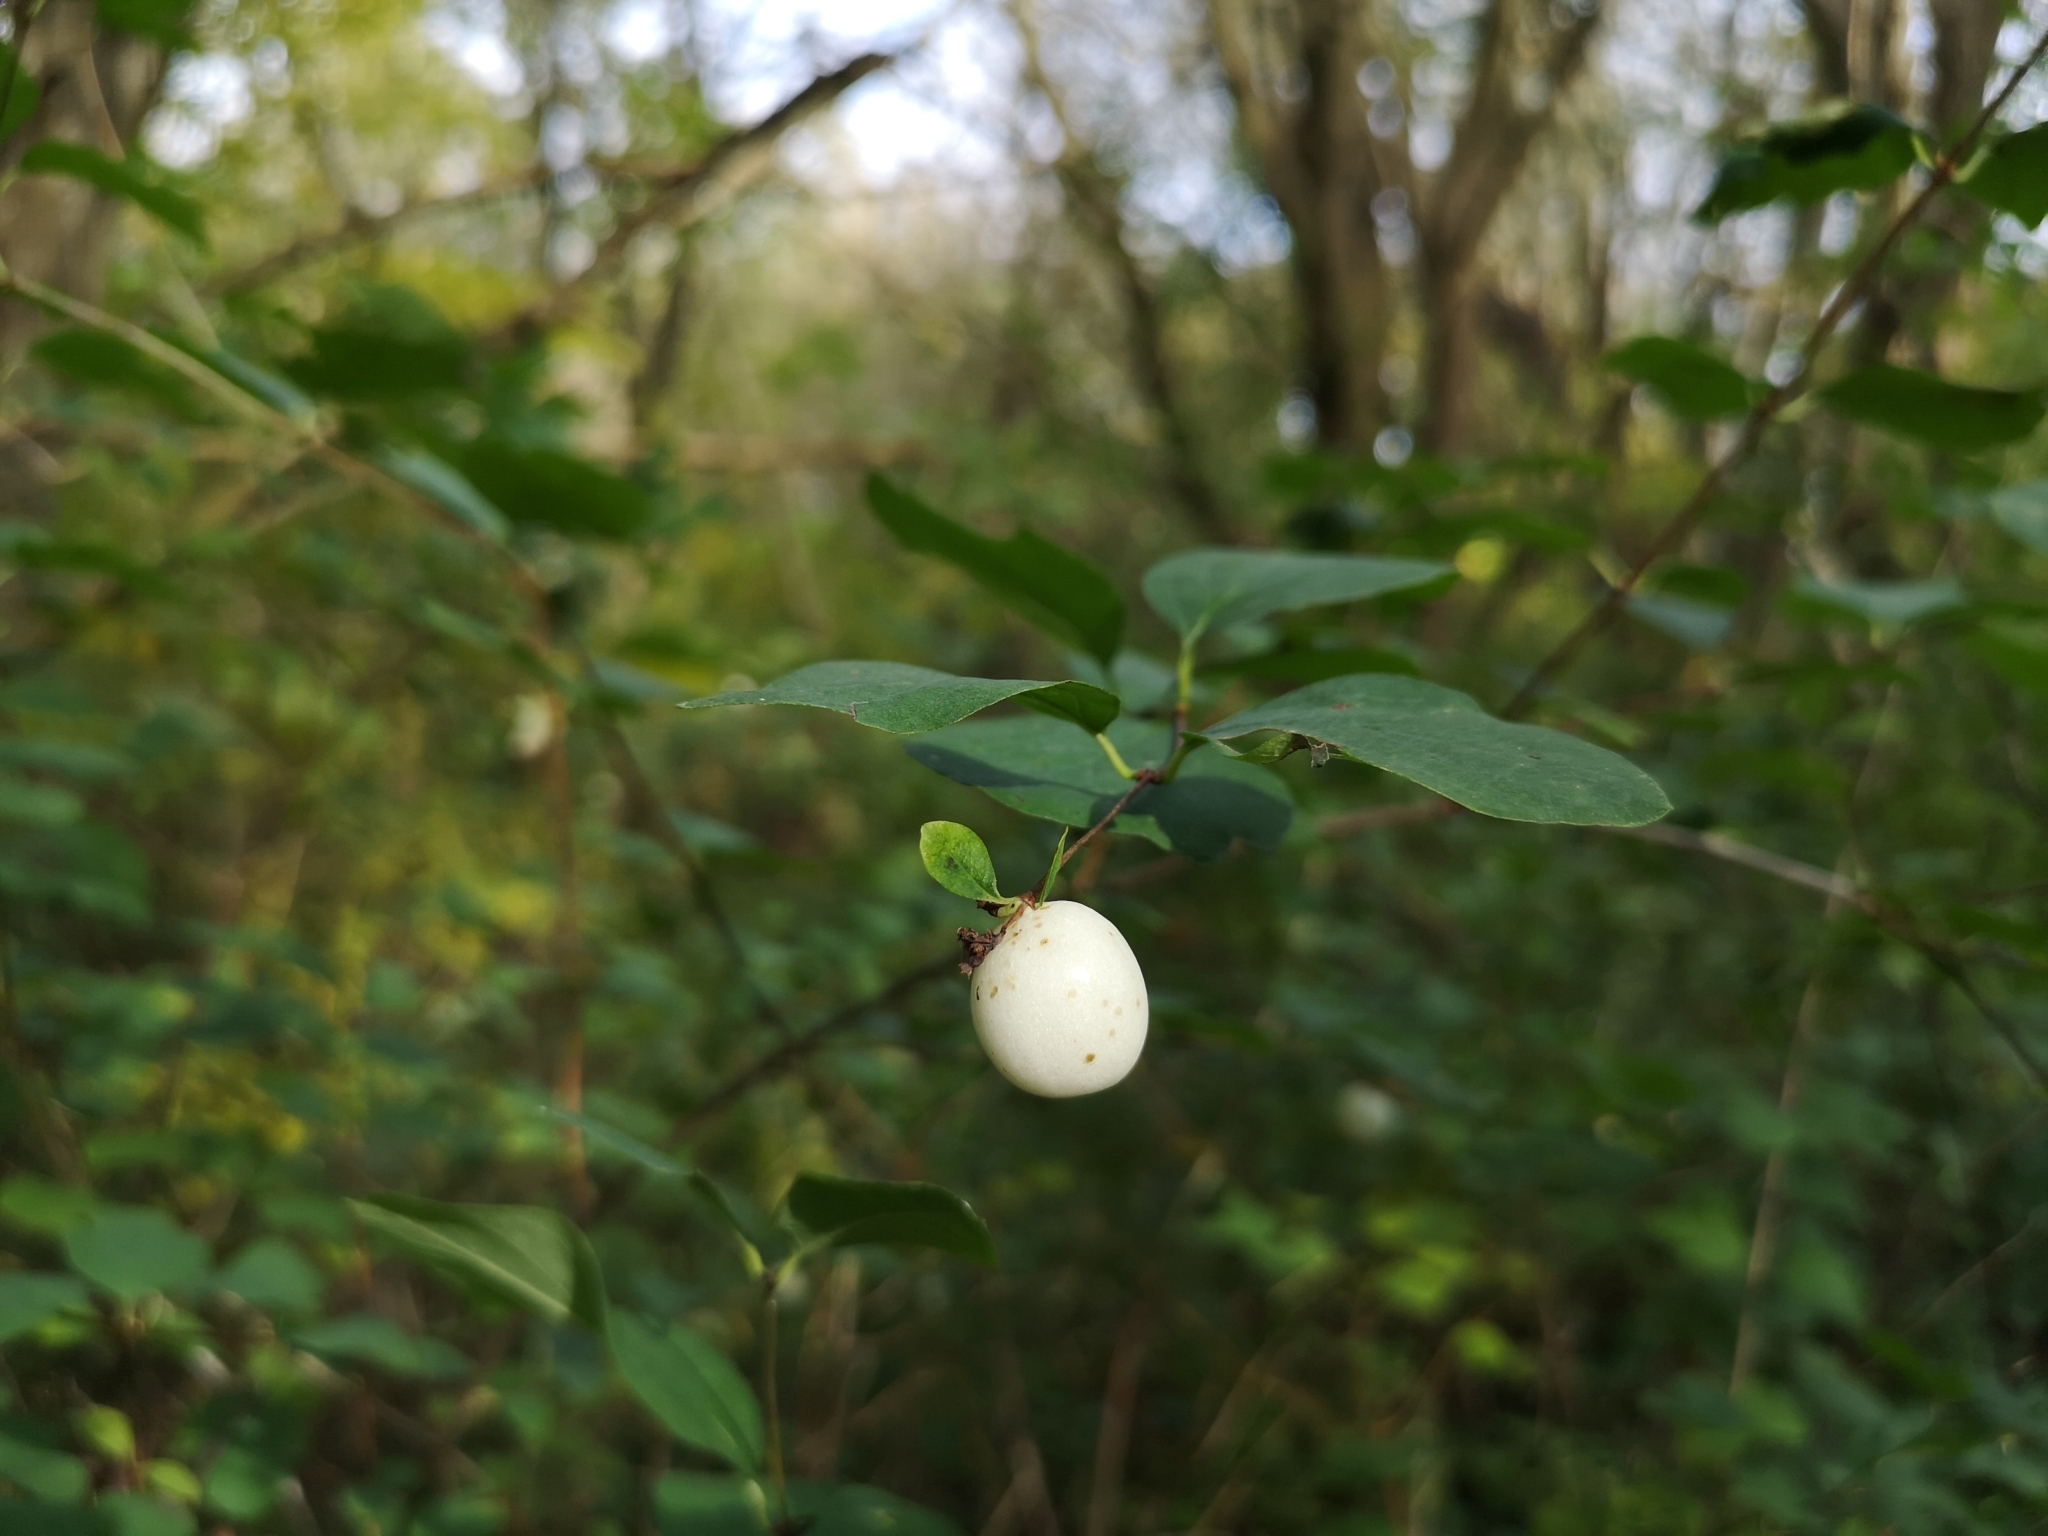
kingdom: Plantae
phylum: Tracheophyta
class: Magnoliopsida
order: Dipsacales
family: Caprifoliaceae
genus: Symphoricarpos
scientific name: Symphoricarpos albus
